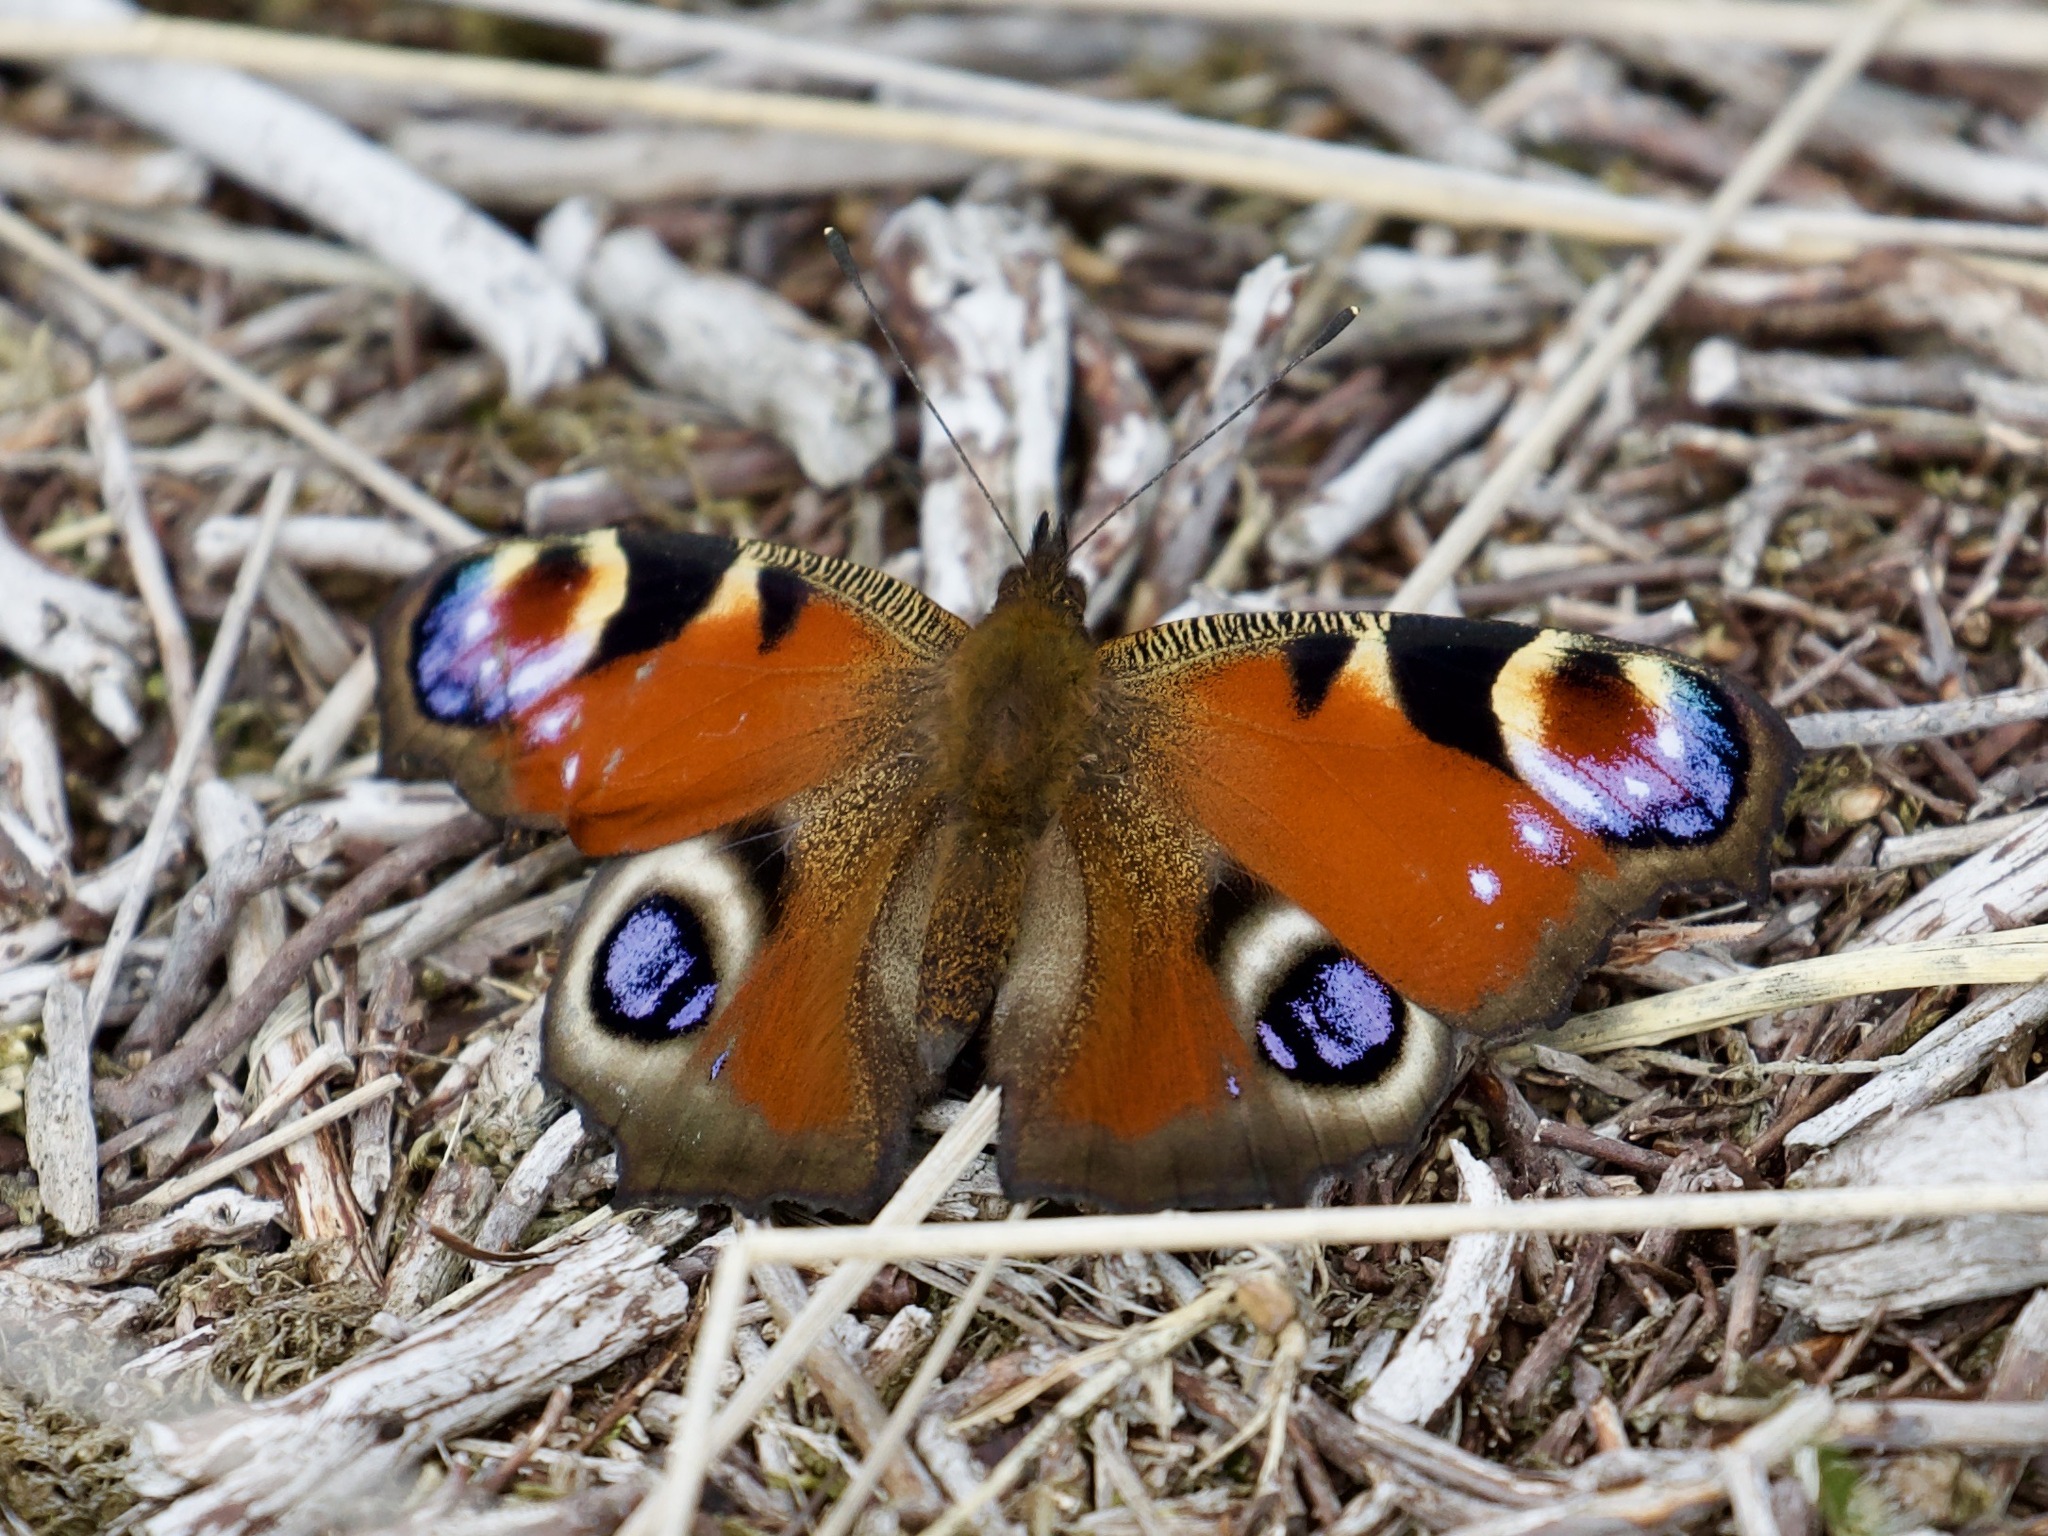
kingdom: Animalia
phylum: Arthropoda
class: Insecta
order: Lepidoptera
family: Nymphalidae
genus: Aglais
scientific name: Aglais io
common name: Peacock
